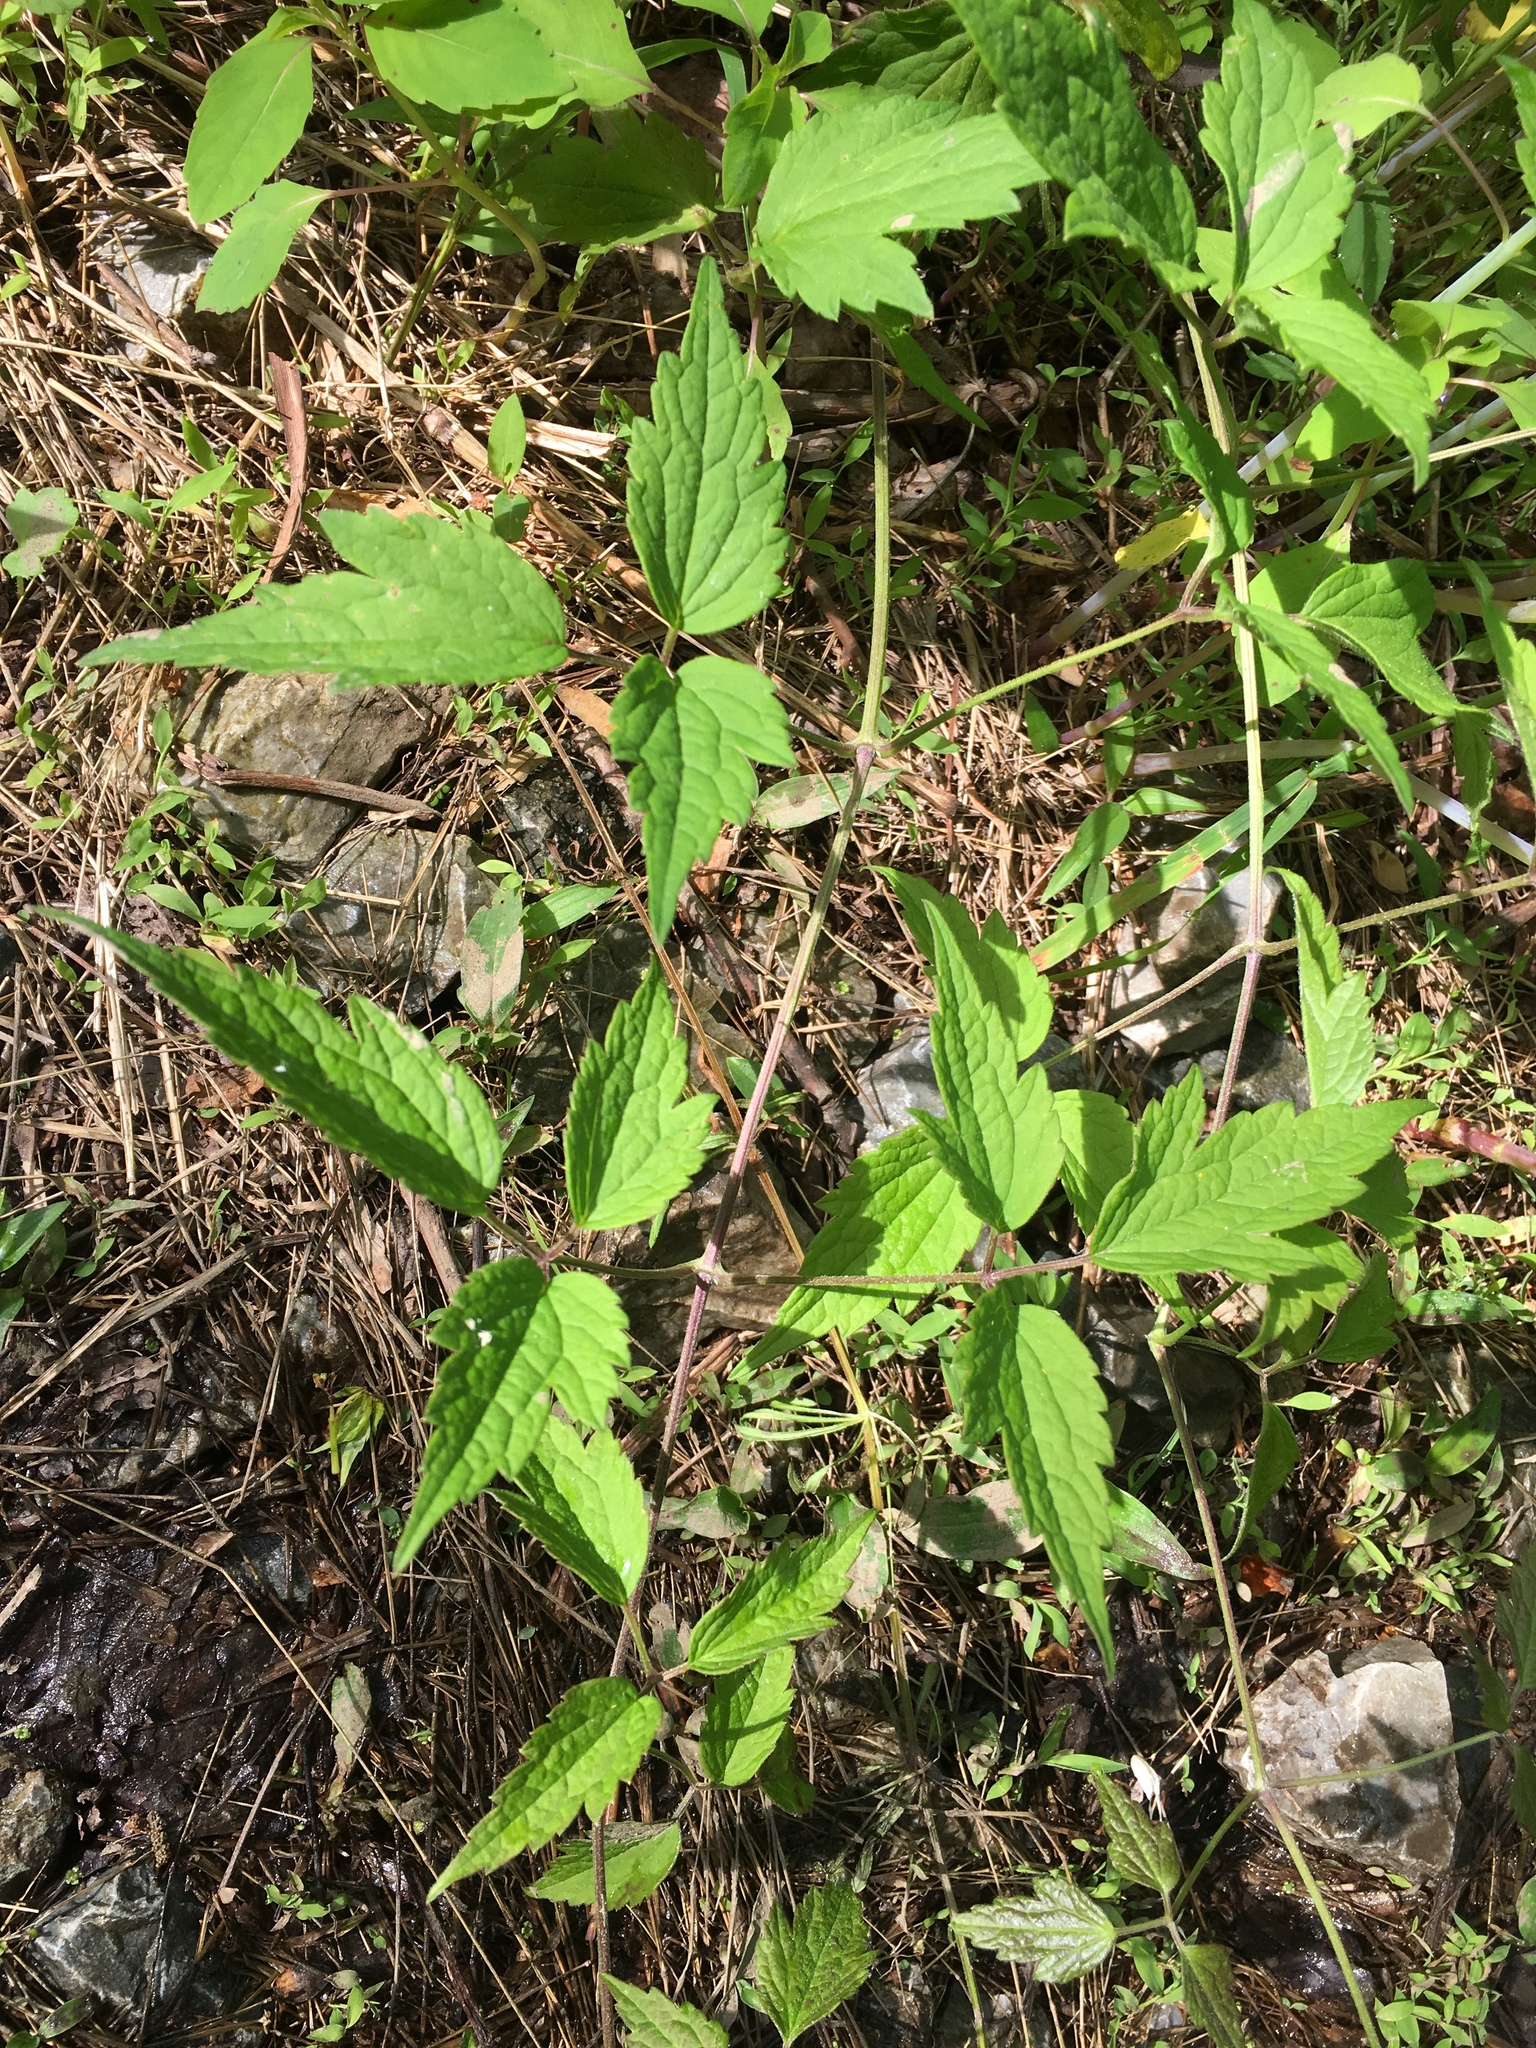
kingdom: Plantae
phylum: Tracheophyta
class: Magnoliopsida
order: Ranunculales
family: Ranunculaceae
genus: Clematis
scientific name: Clematis virginiana
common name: Virgin's-bower
